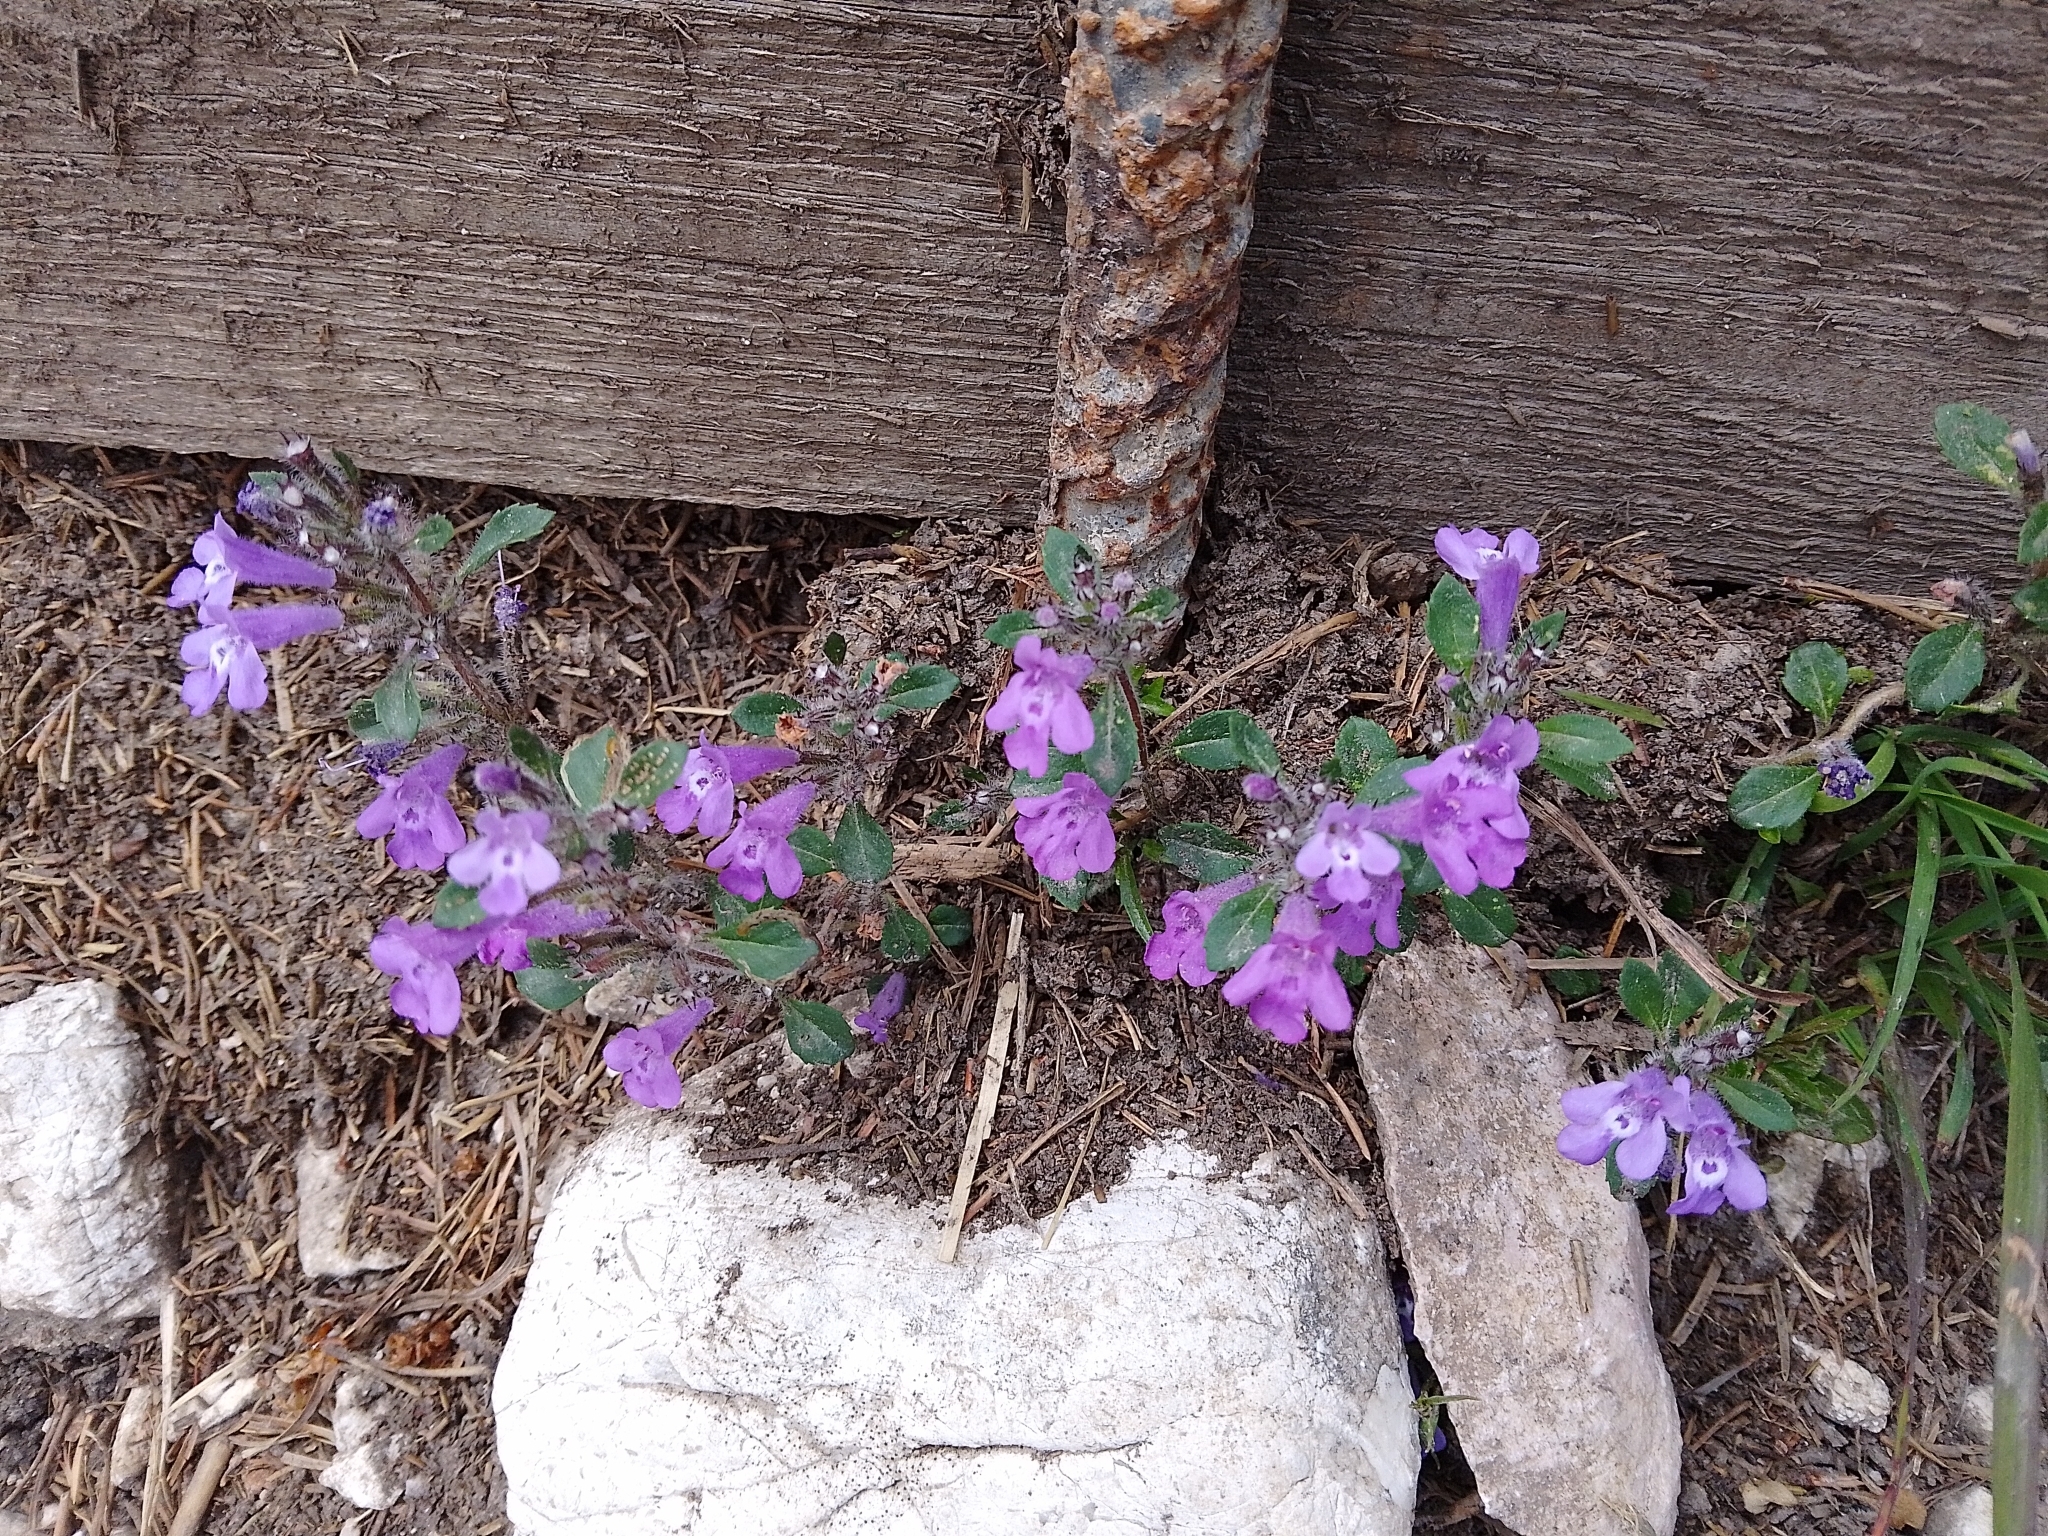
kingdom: Plantae
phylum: Tracheophyta
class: Magnoliopsida
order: Lamiales
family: Lamiaceae
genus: Clinopodium
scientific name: Clinopodium alpinum
